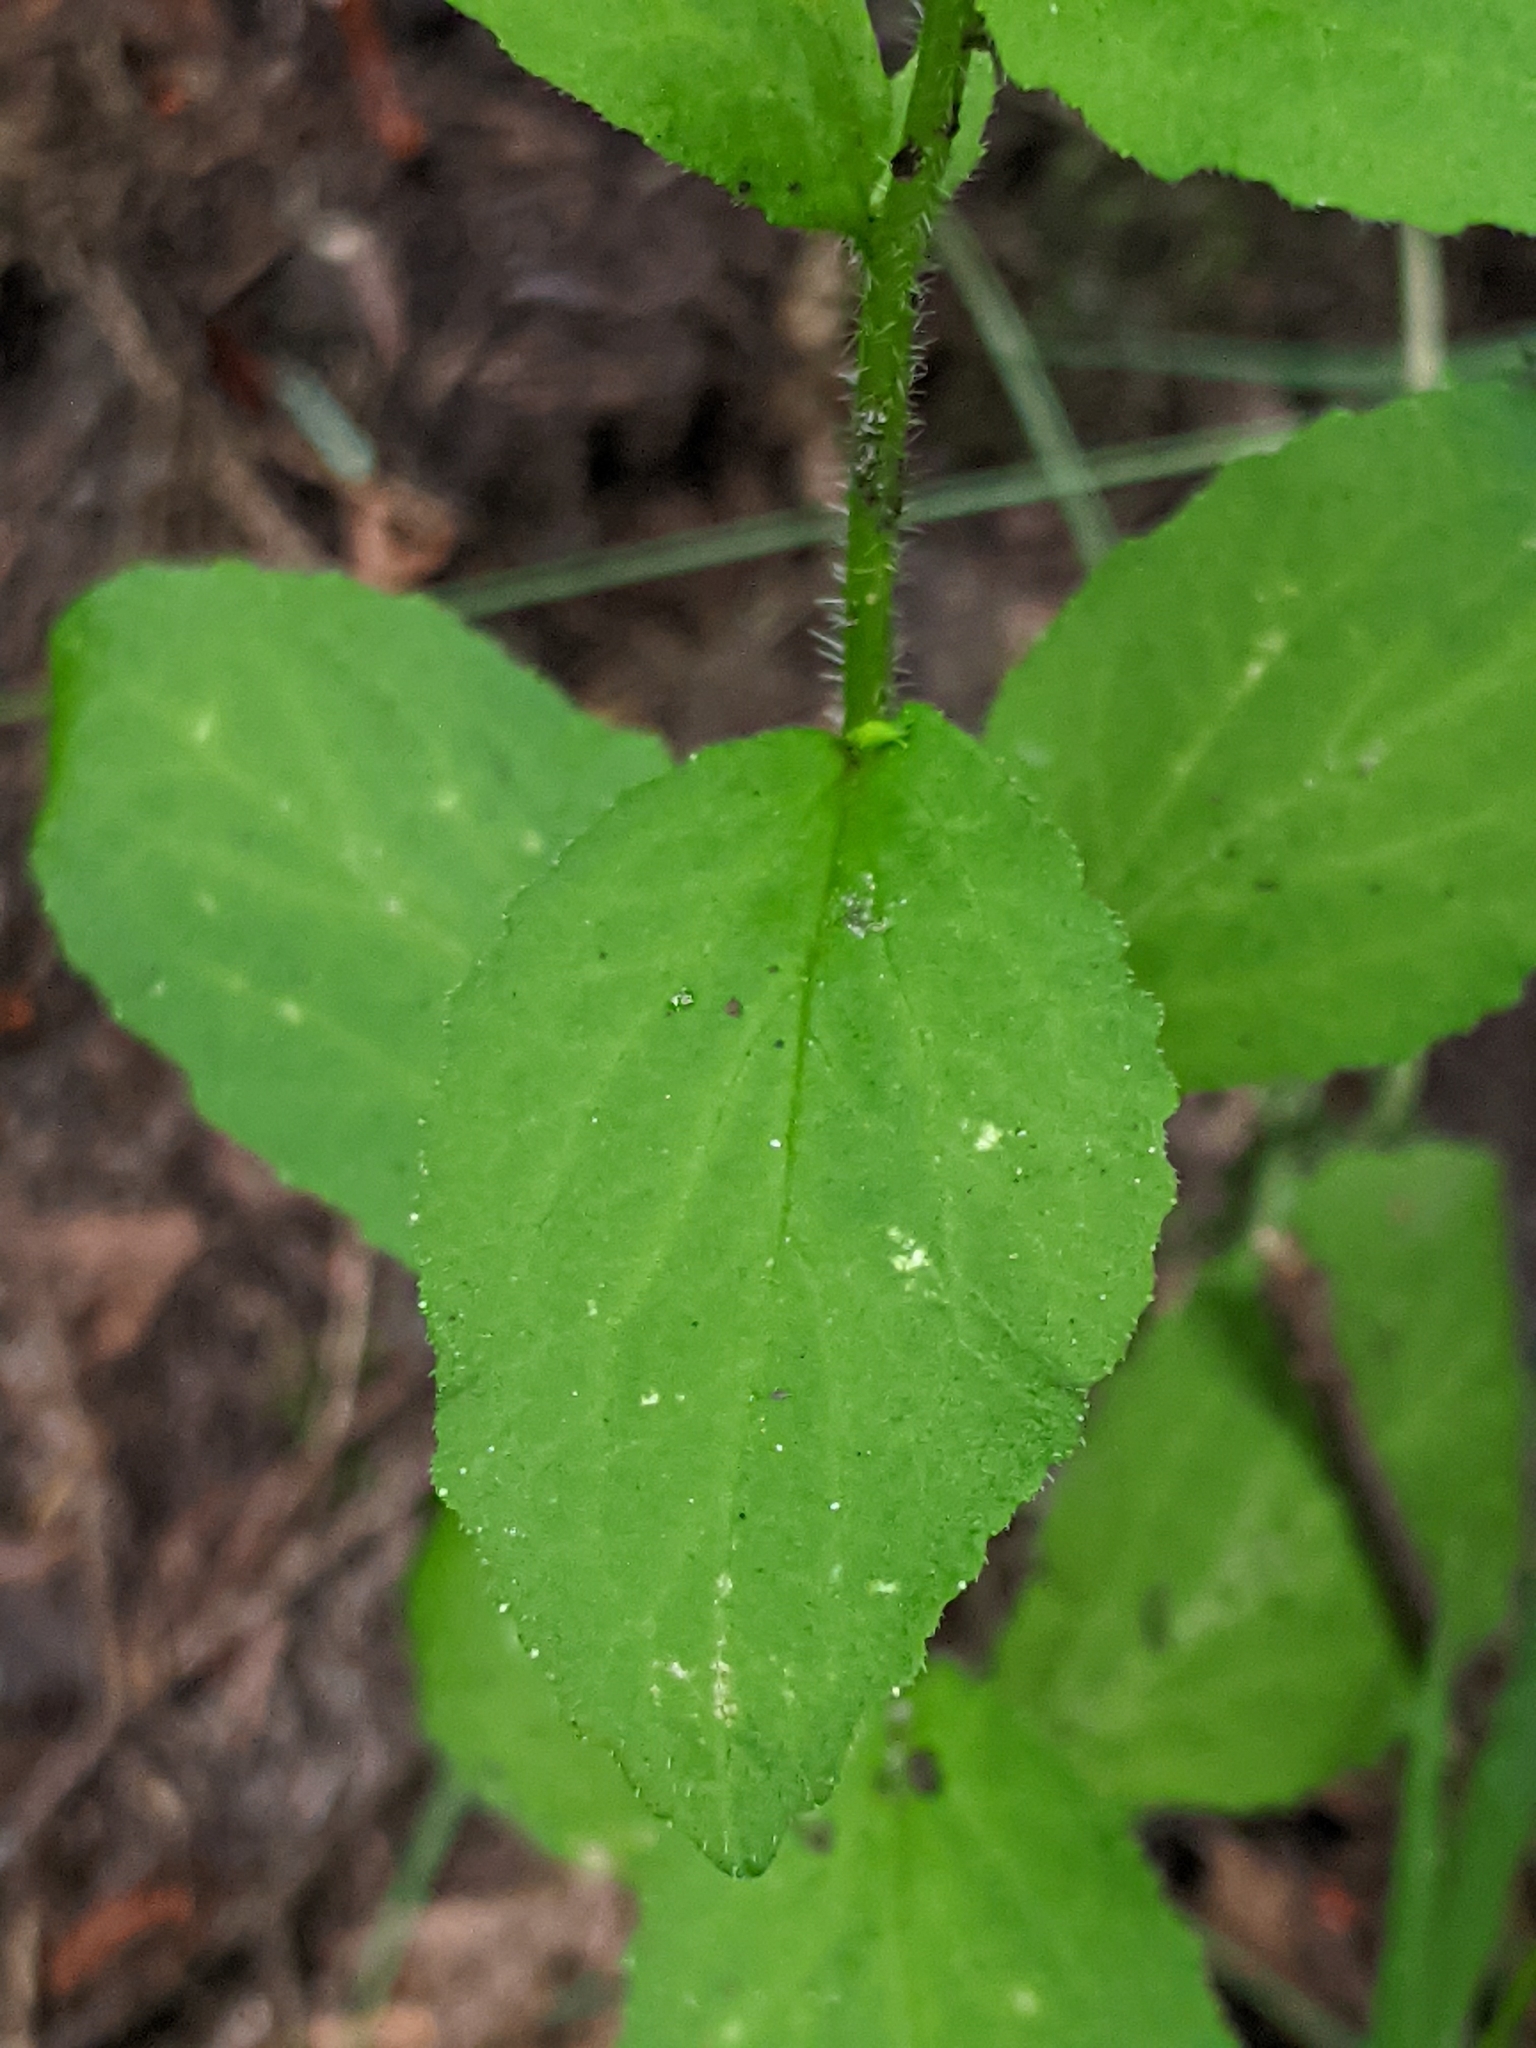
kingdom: Plantae
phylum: Tracheophyta
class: Magnoliopsida
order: Asterales
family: Campanulaceae
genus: Lobelia
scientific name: Lobelia inflata
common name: Indian tobacco
